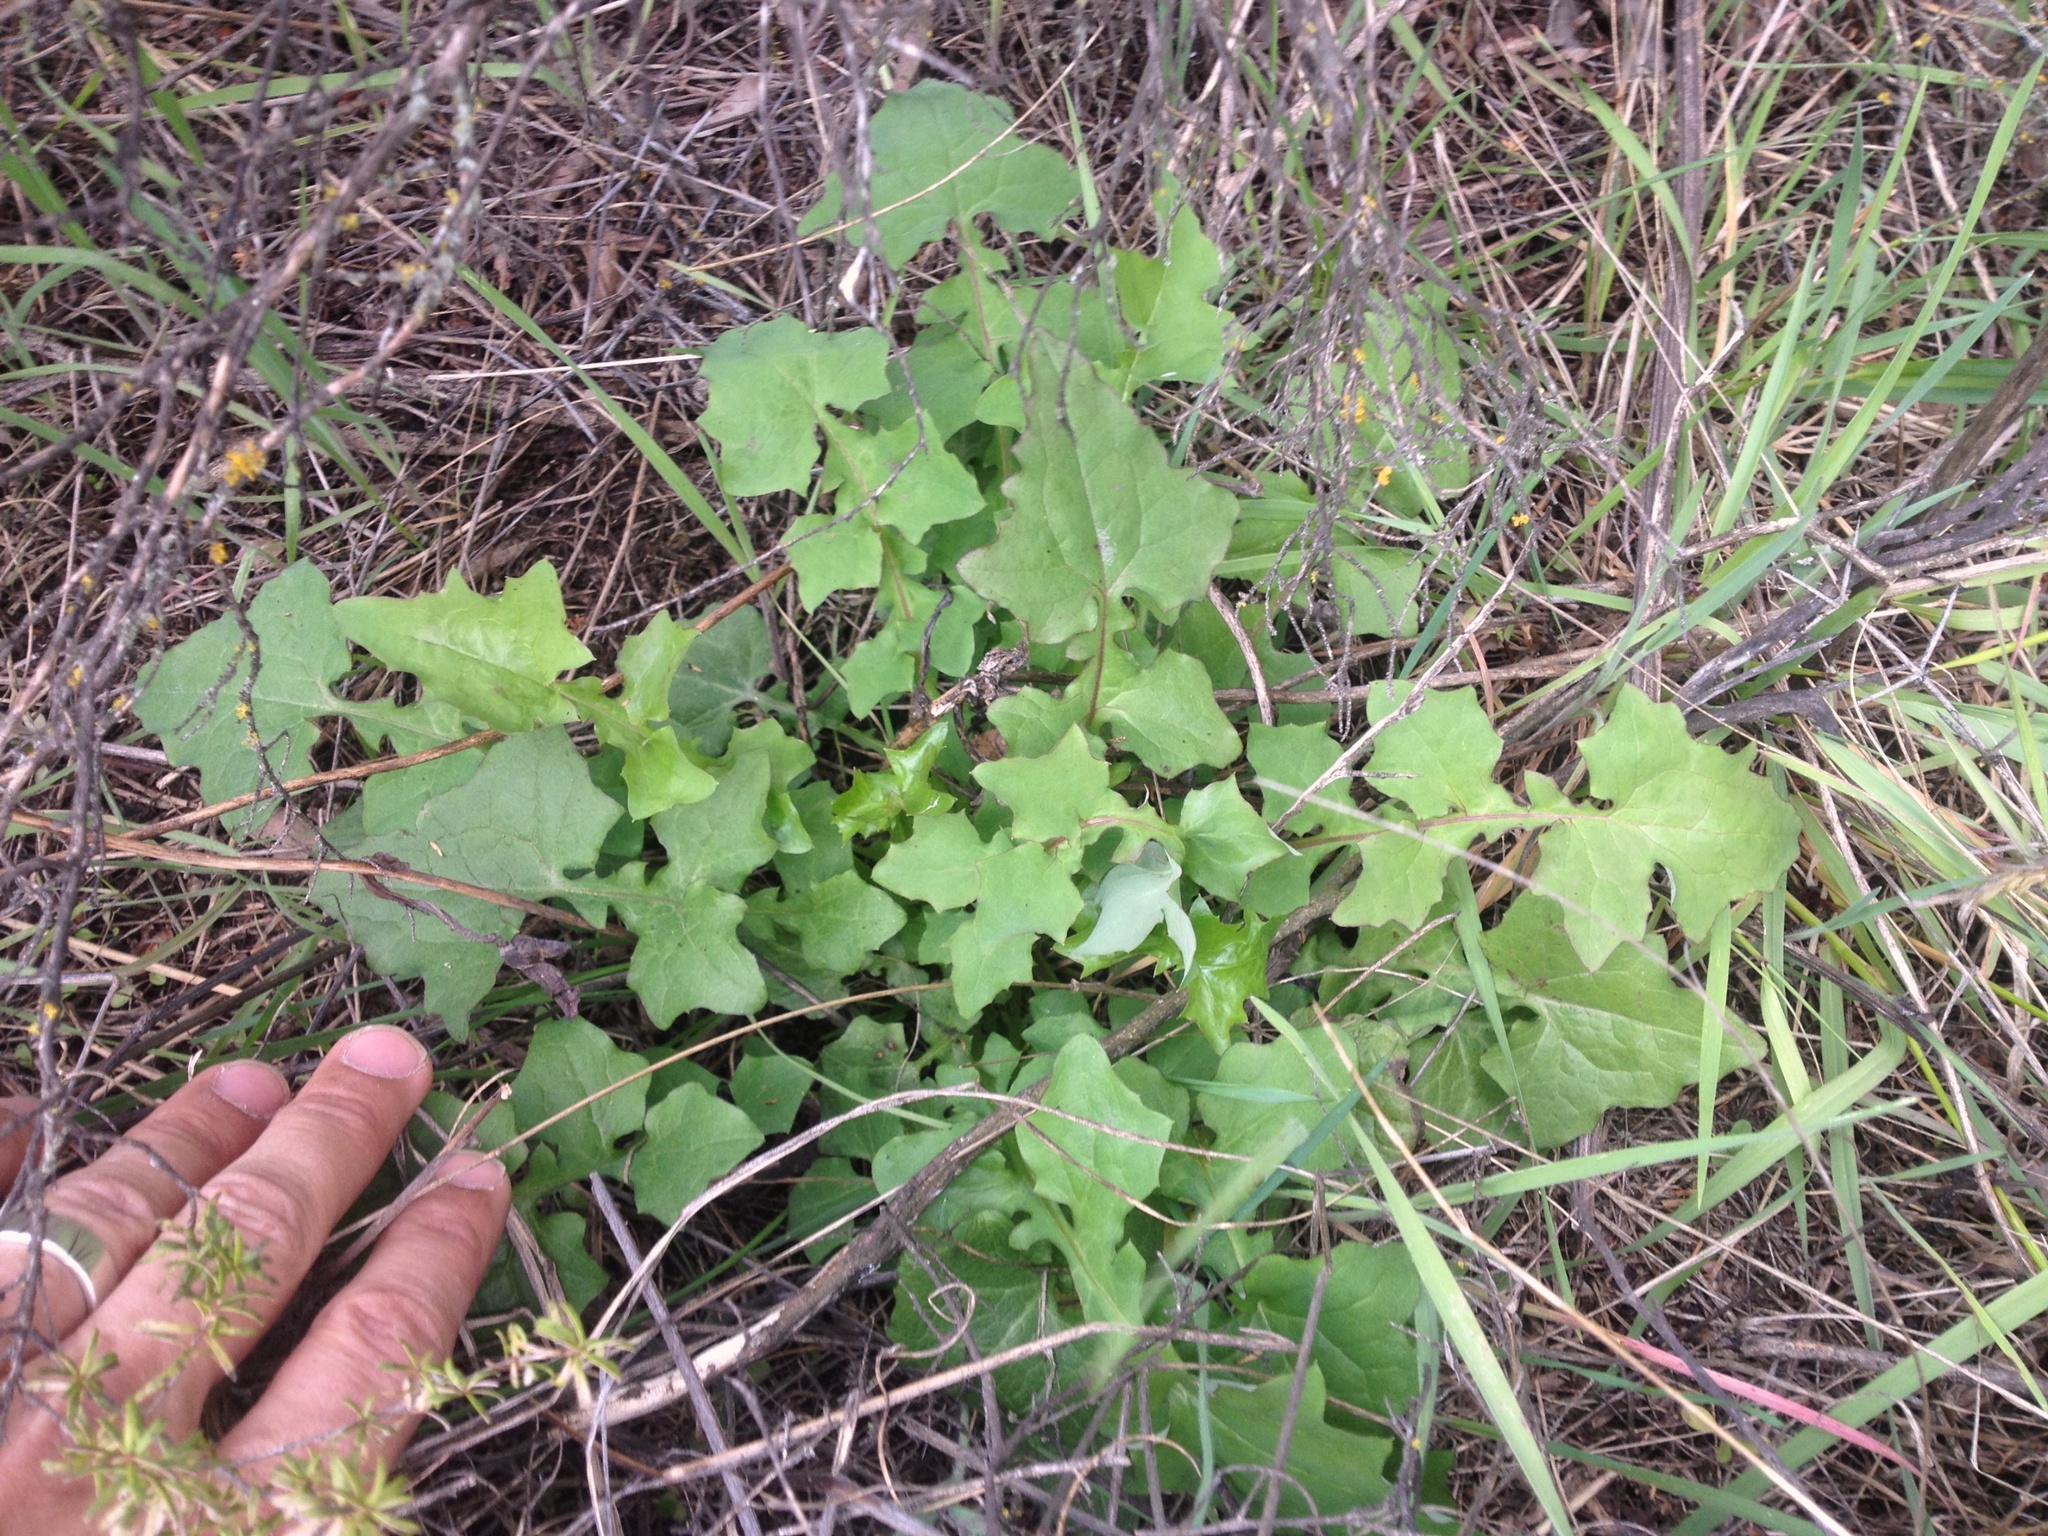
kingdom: Plantae
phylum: Tracheophyta
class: Magnoliopsida
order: Asterales
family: Asteraceae
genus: Mycelis
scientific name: Mycelis muralis
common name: Wall lettuce
